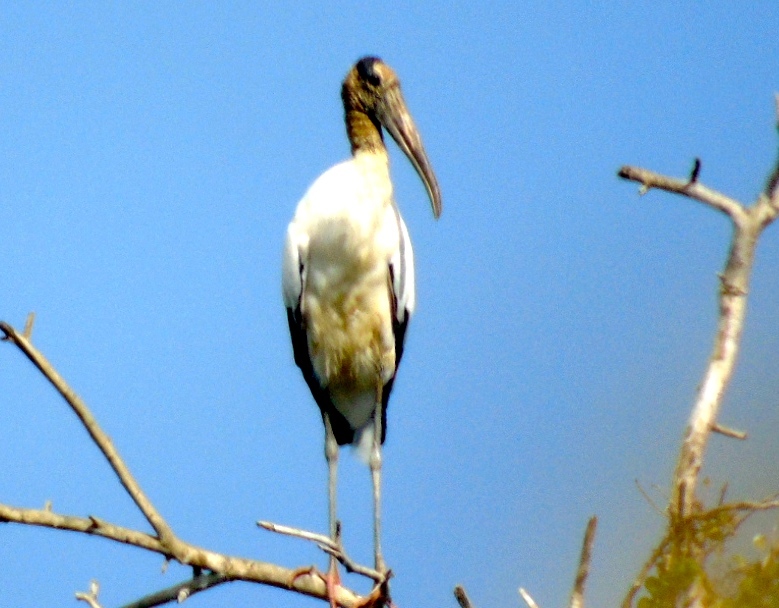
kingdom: Animalia
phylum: Chordata
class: Aves
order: Ciconiiformes
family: Ciconiidae
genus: Mycteria
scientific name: Mycteria americana
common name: Wood stork
